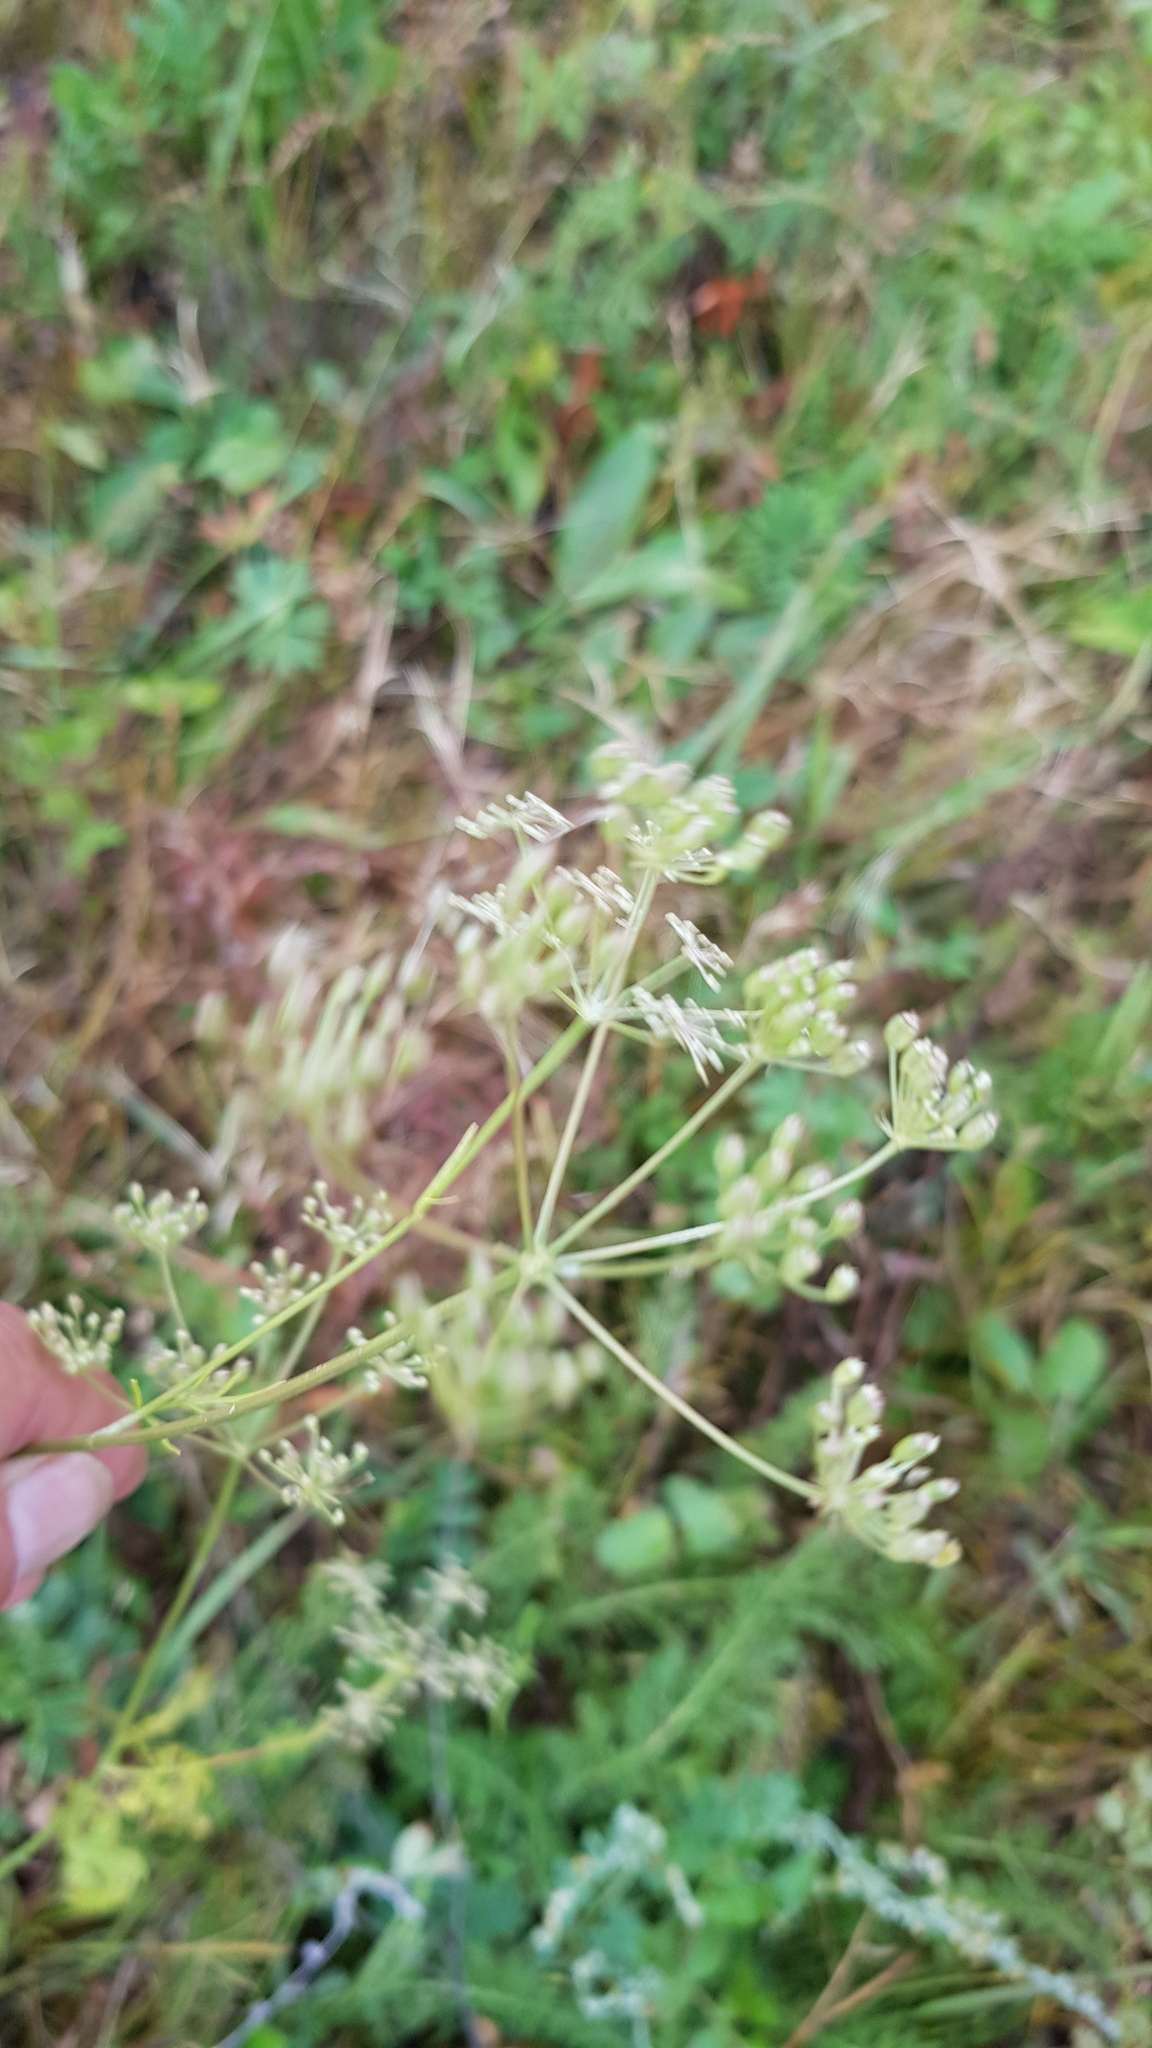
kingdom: Plantae
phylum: Tracheophyta
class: Magnoliopsida
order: Apiales
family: Apiaceae
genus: Carum
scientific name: Carum carvi
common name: Caraway
